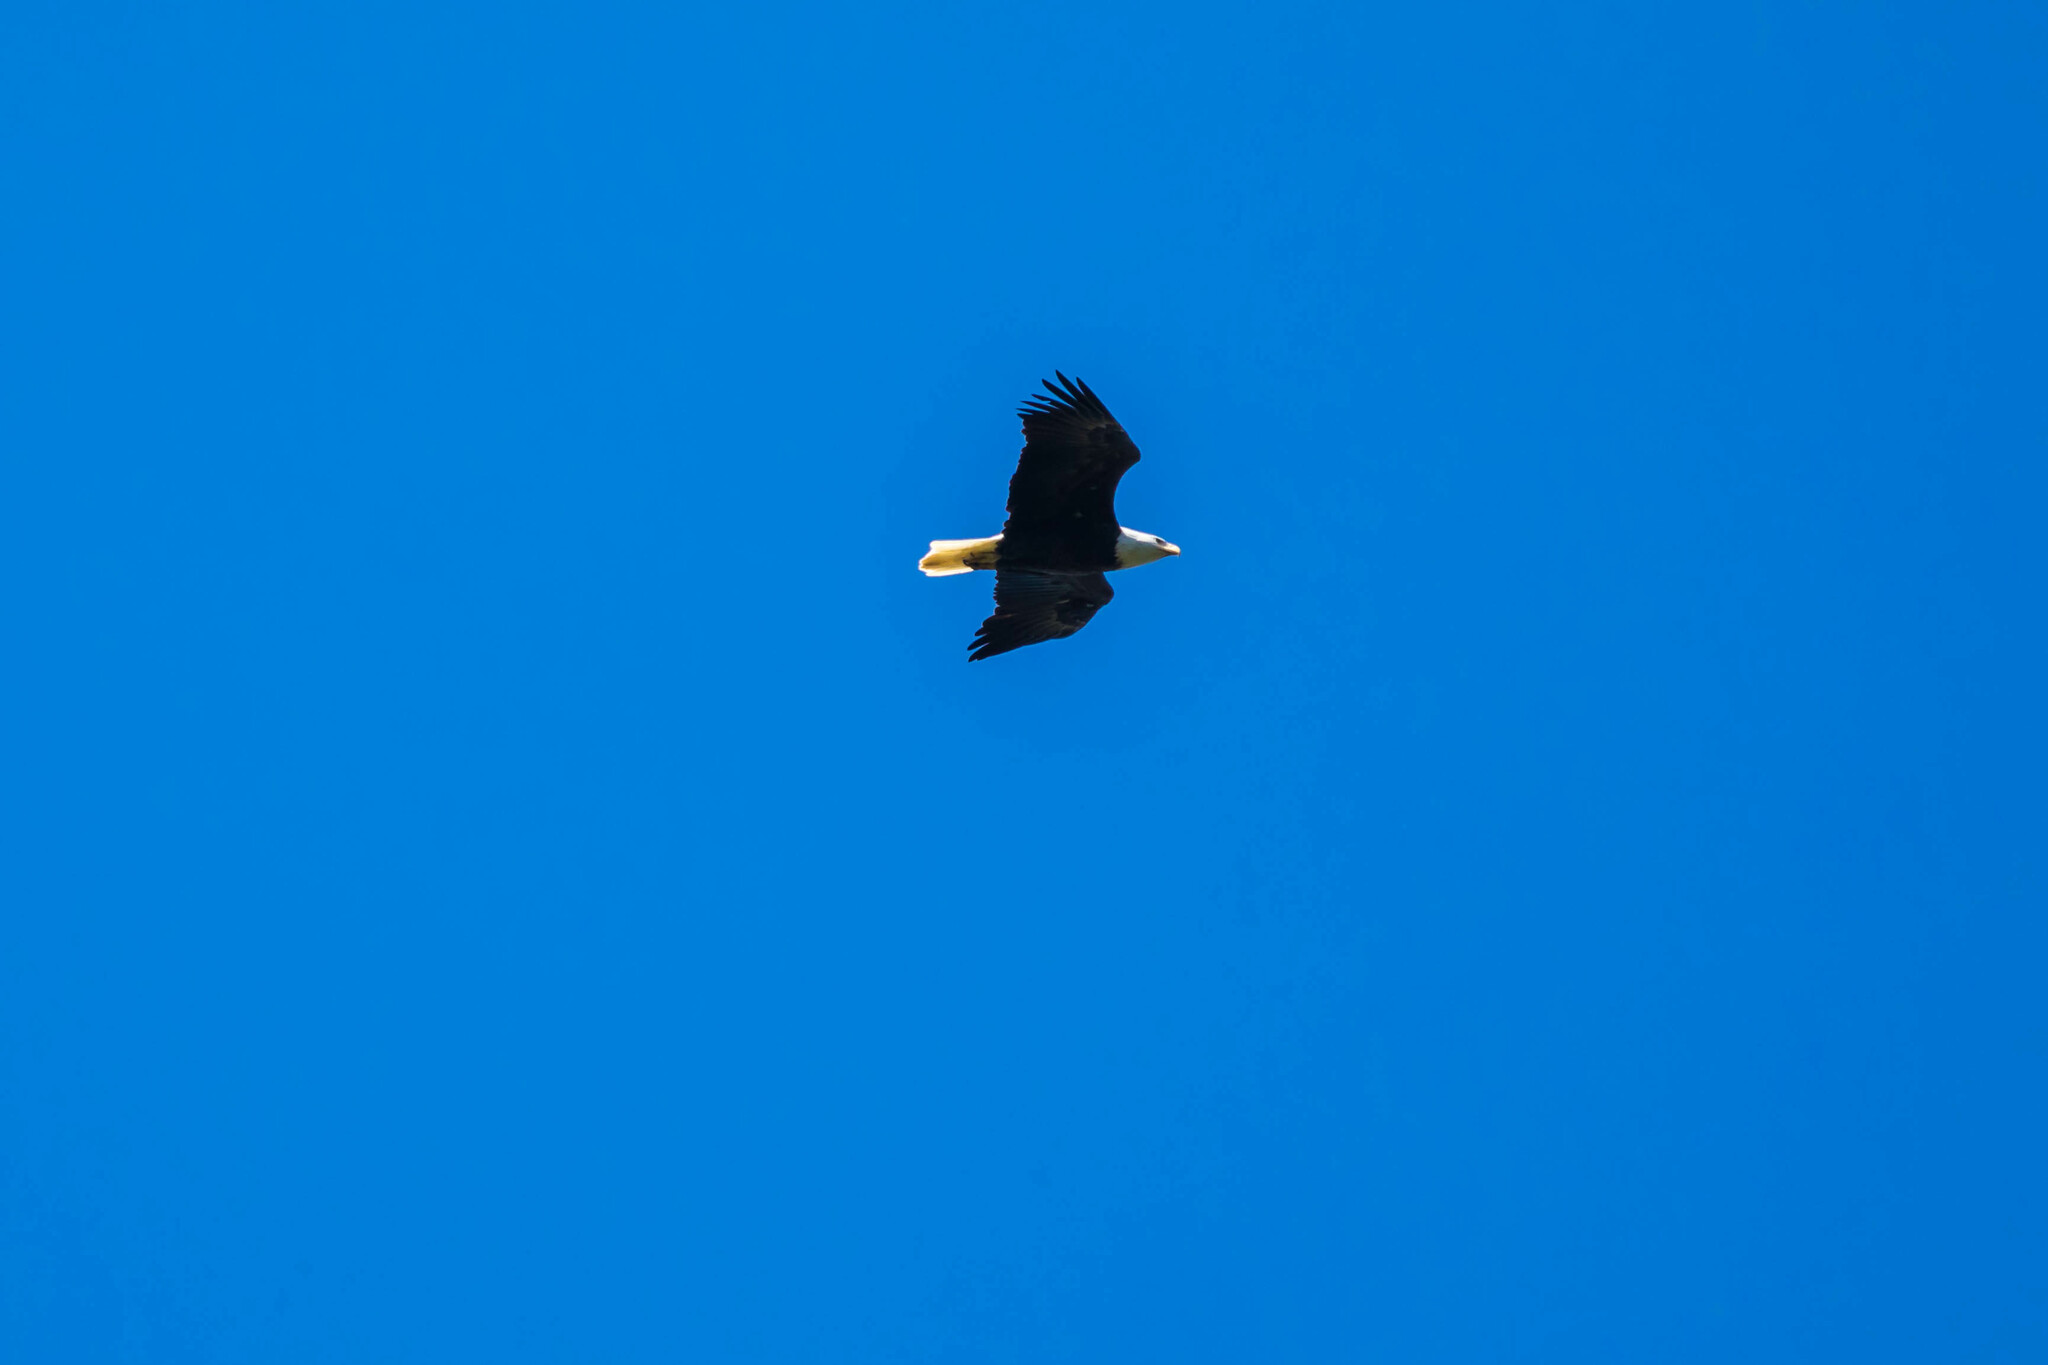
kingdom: Animalia
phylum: Chordata
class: Aves
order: Accipitriformes
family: Accipitridae
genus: Haliaeetus
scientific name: Haliaeetus leucocephalus
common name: Bald eagle
